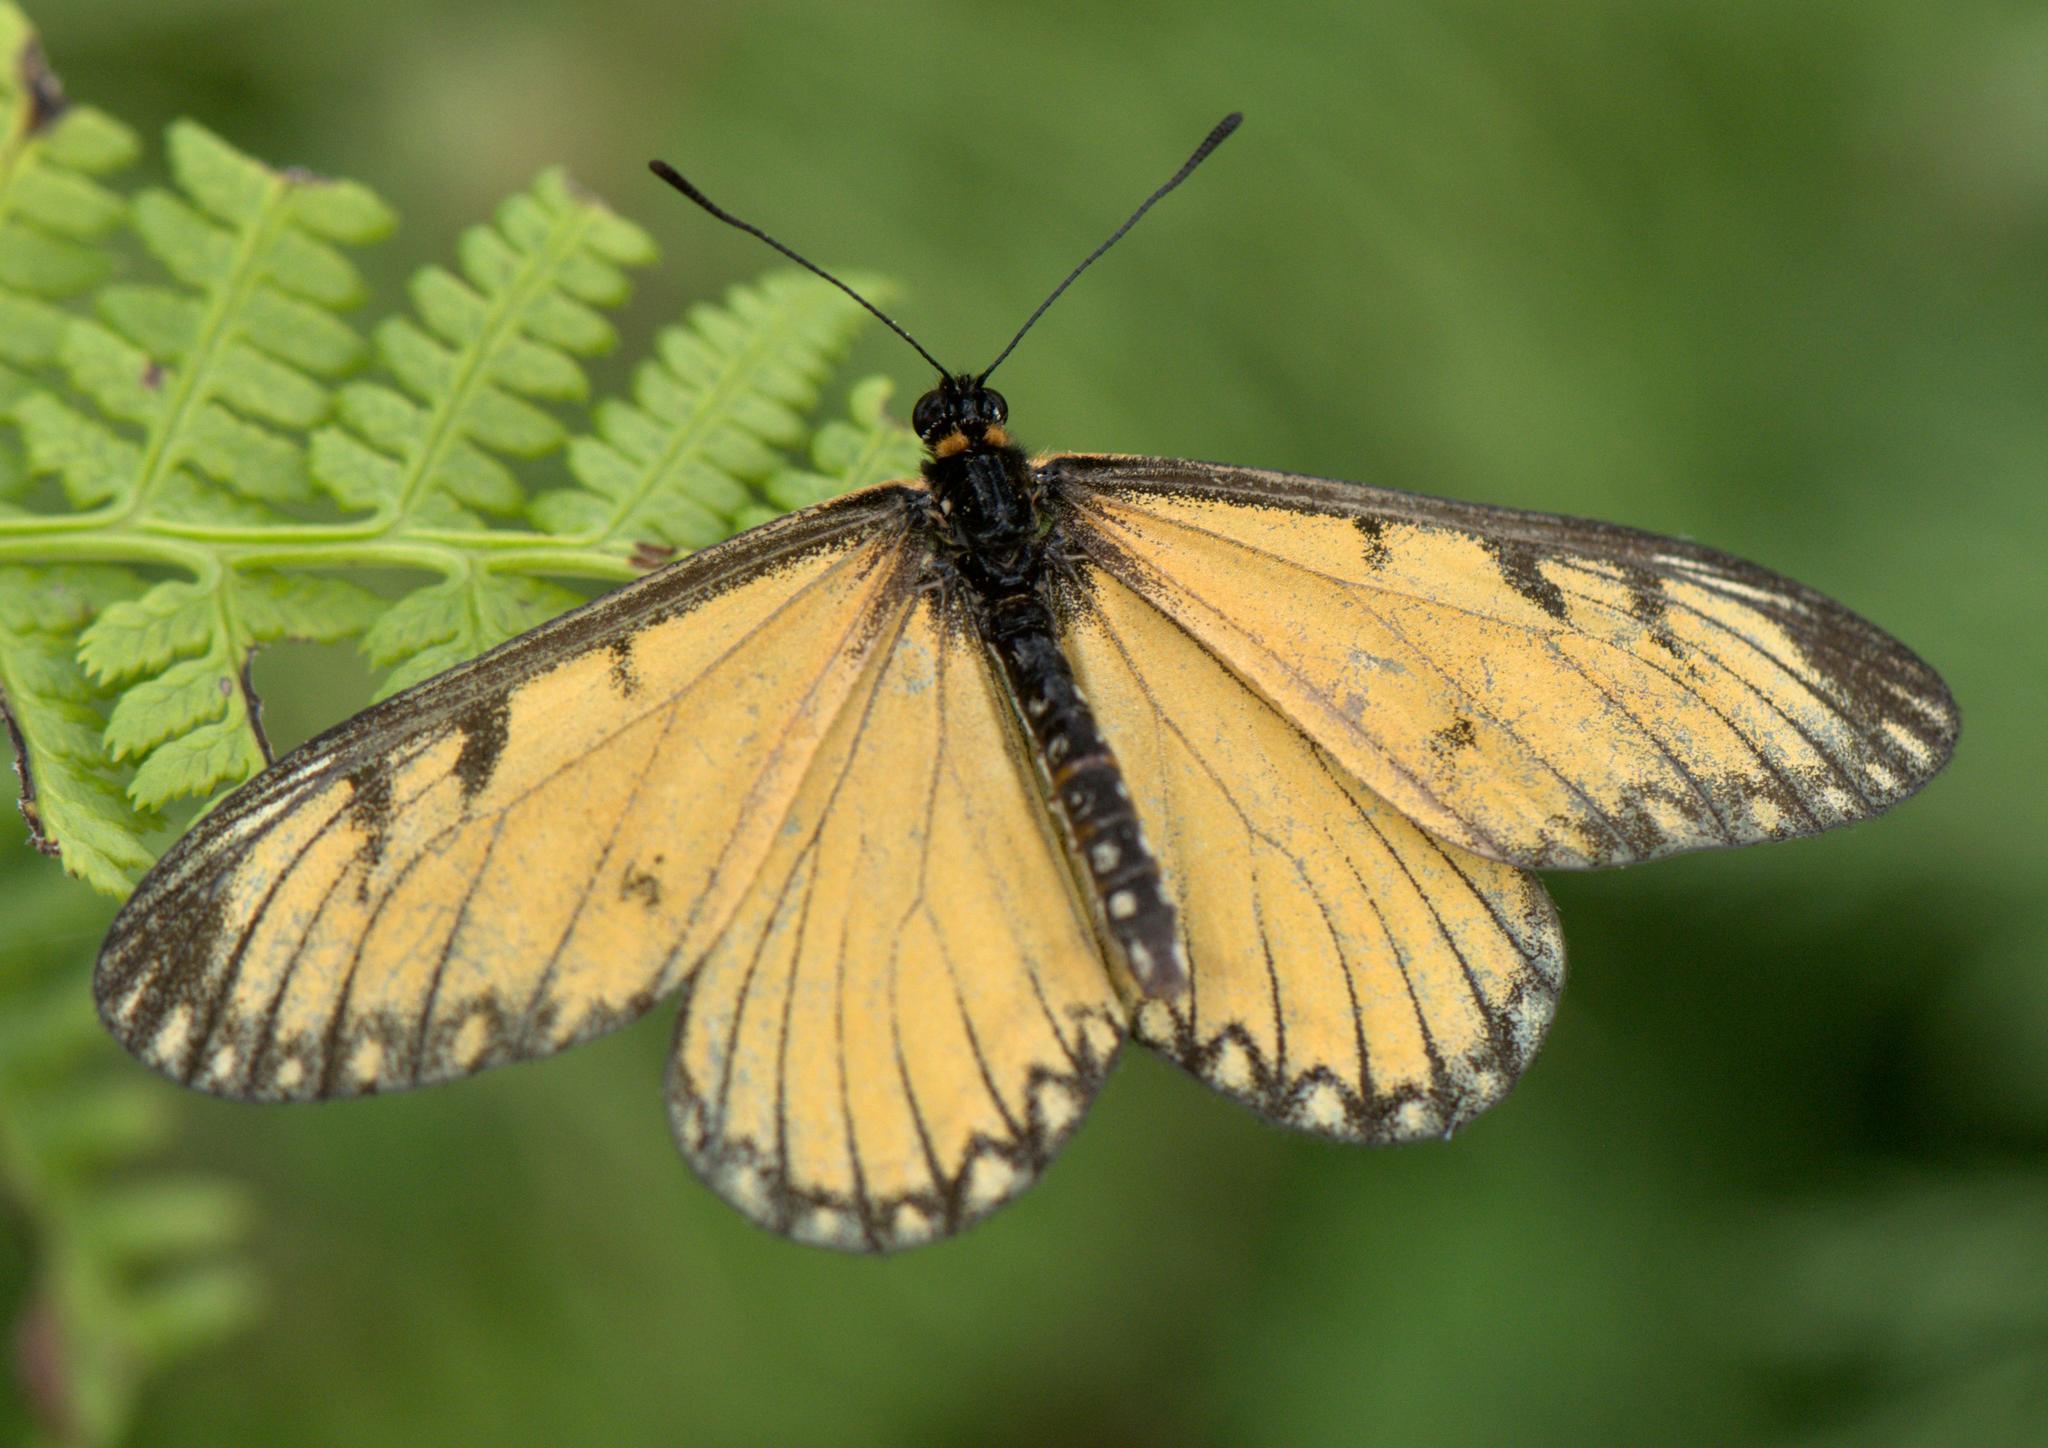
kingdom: Animalia
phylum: Arthropoda
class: Insecta
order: Lepidoptera
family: Nymphalidae
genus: Acraea
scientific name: Acraea Telchinia issoria
